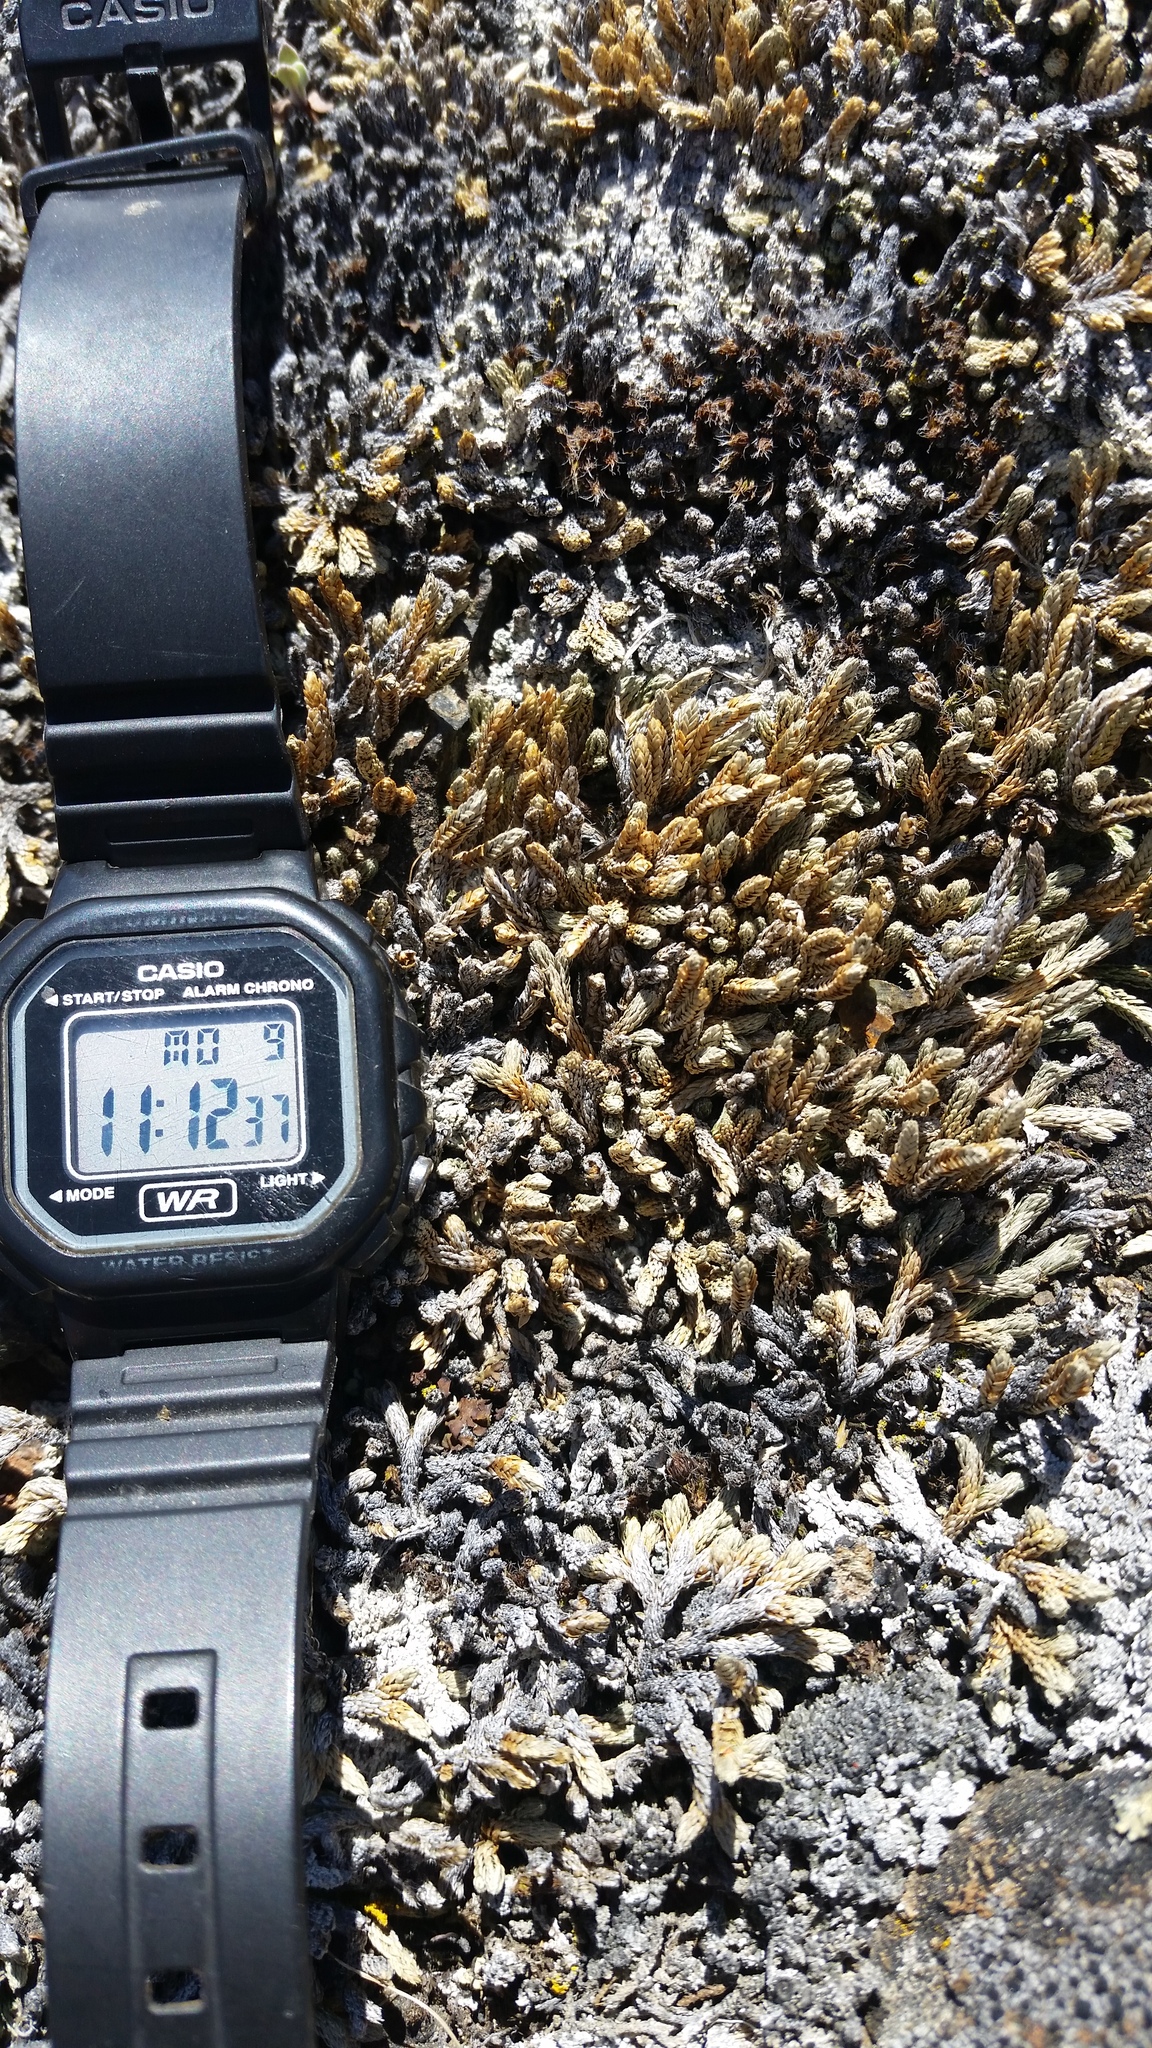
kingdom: Plantae
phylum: Tracheophyta
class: Lycopodiopsida
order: Selaginellales
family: Selaginellaceae
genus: Selaginella
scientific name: Selaginella densa
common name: Mountain spike-moss
